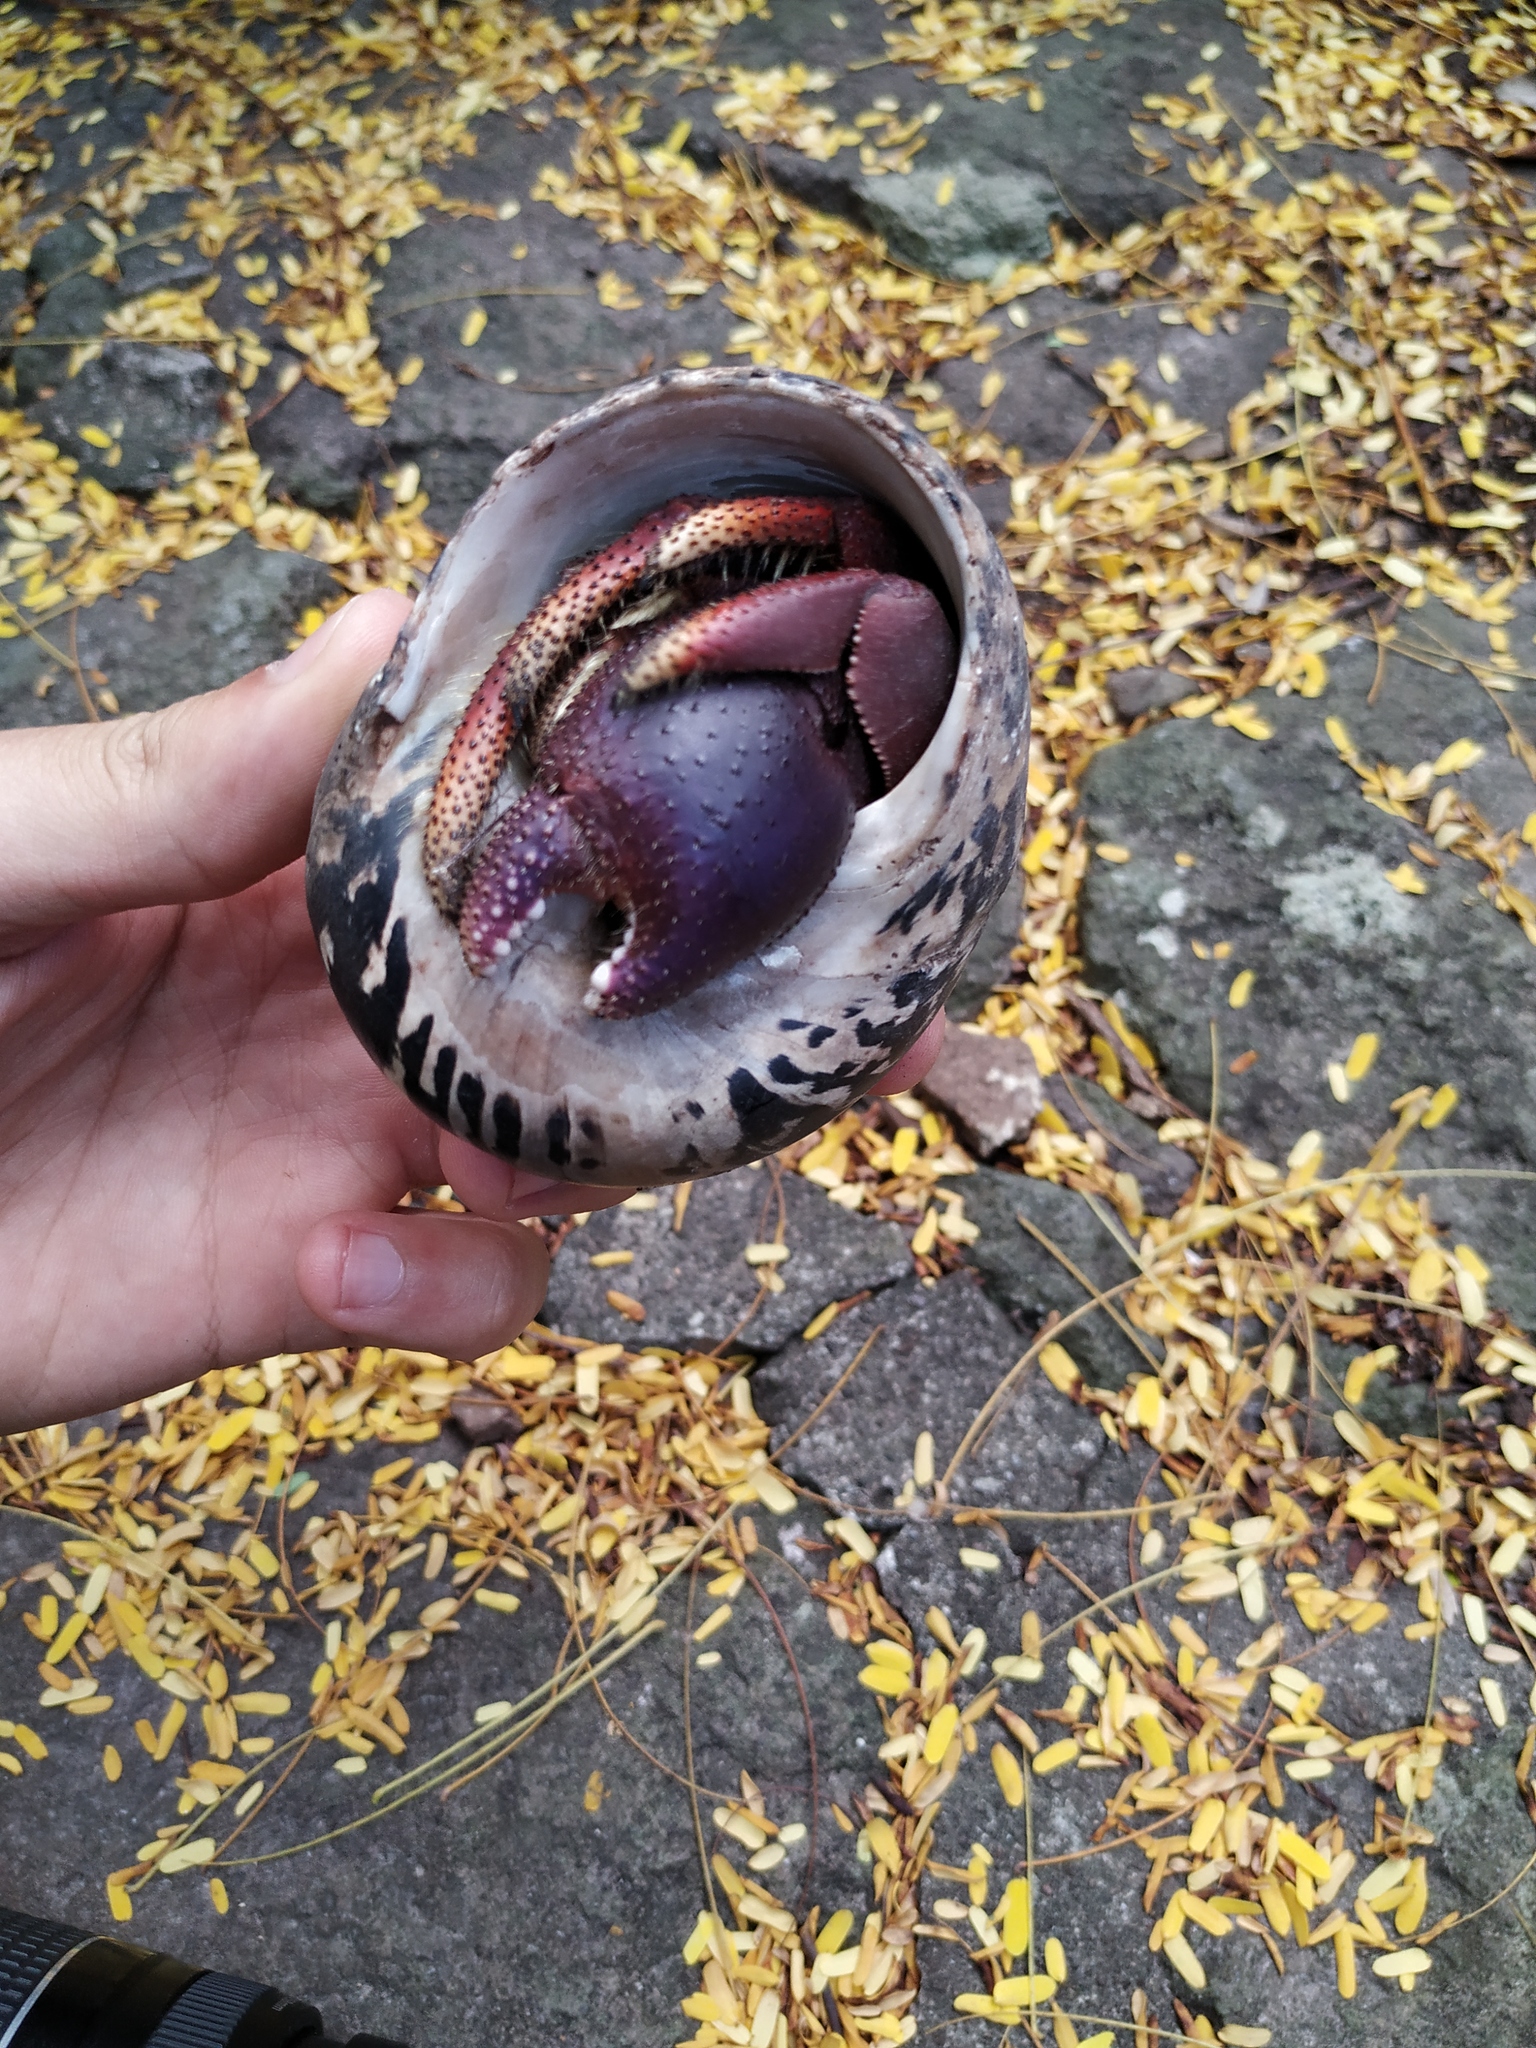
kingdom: Animalia
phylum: Arthropoda
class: Malacostraca
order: Decapoda
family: Coenobitidae
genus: Coenobita
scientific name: Coenobita clypeatus
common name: Caribbean hermit crab
